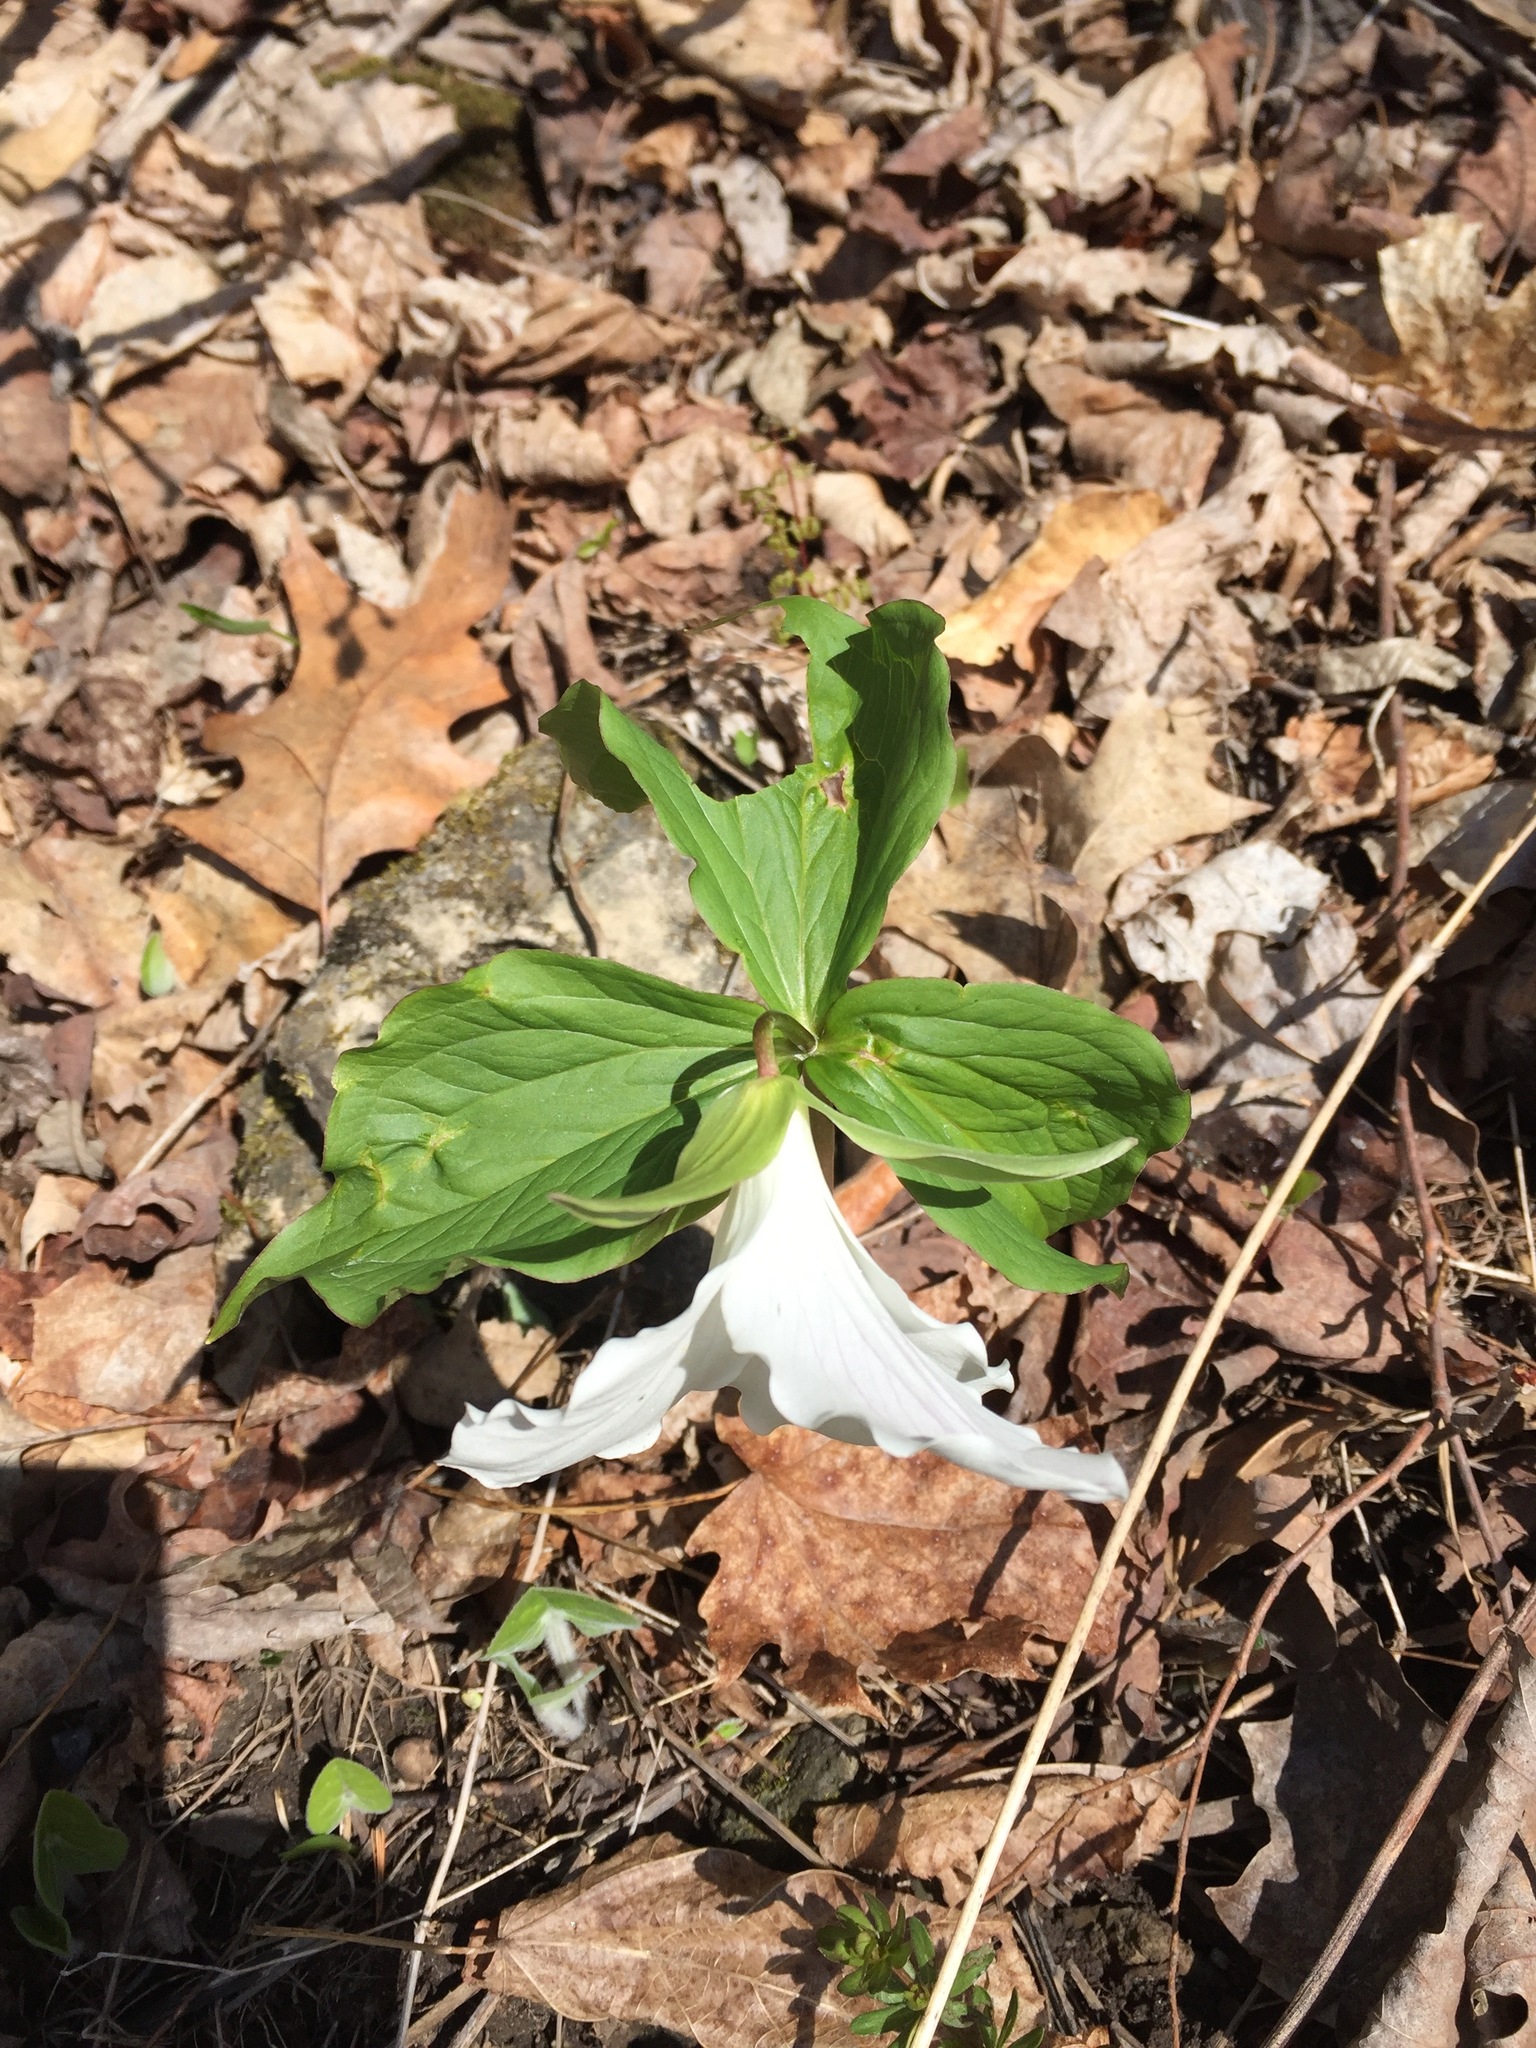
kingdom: Plantae
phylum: Tracheophyta
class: Liliopsida
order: Liliales
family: Melanthiaceae
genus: Trillium
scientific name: Trillium grandiflorum
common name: Great white trillium
